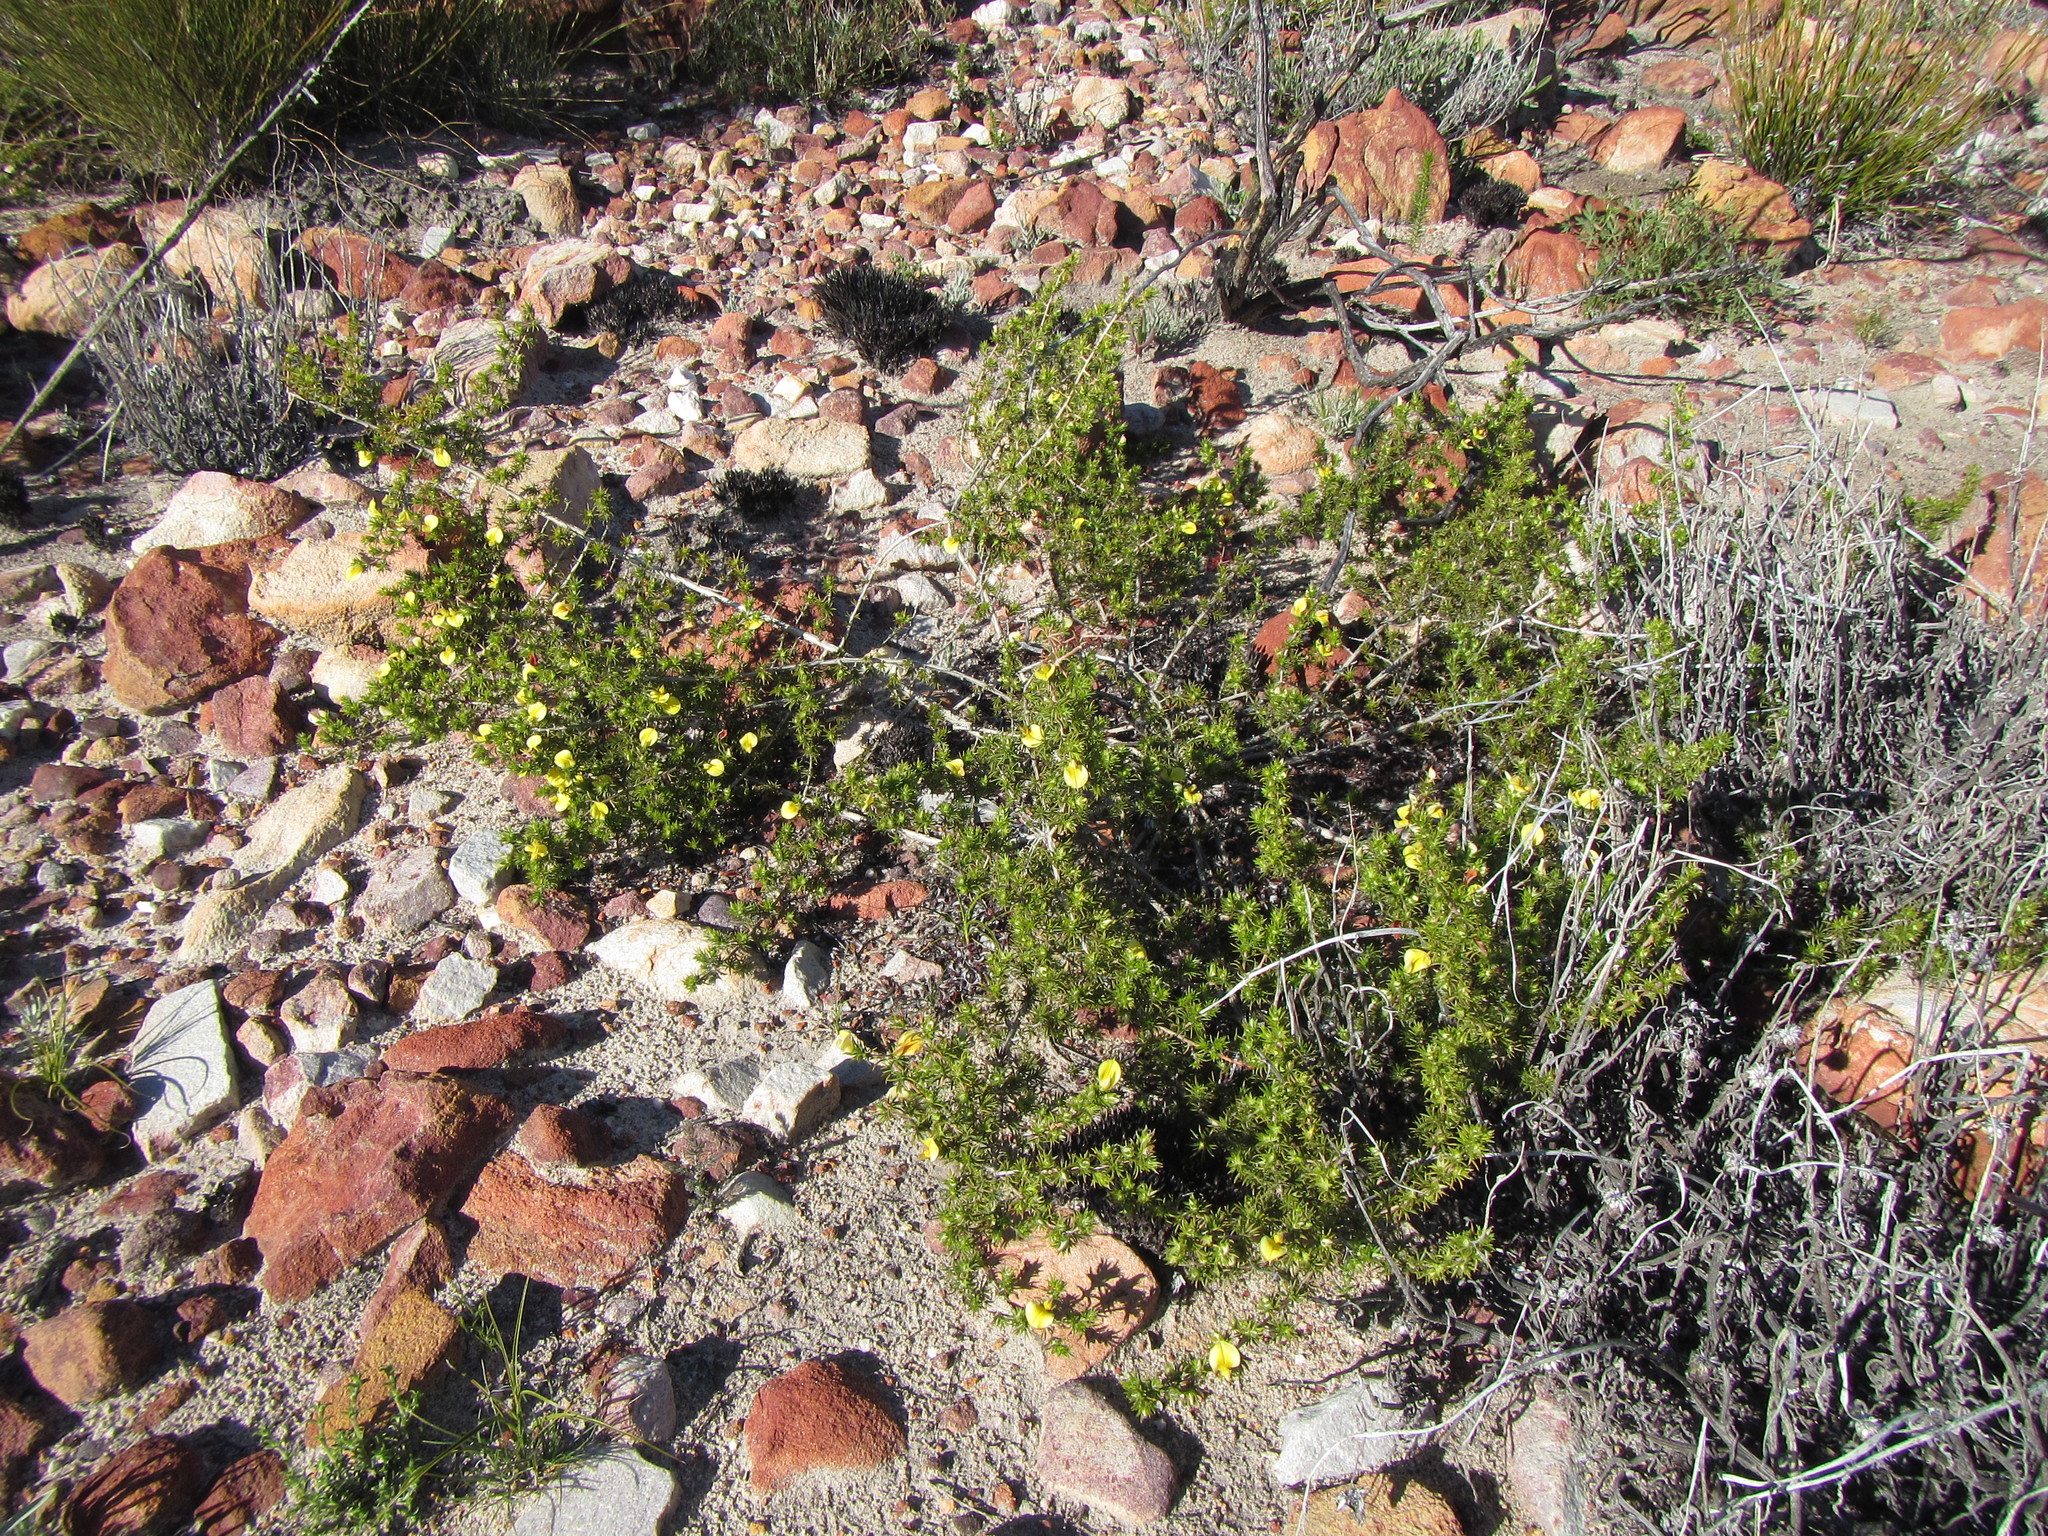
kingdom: Plantae
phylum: Tracheophyta
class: Magnoliopsida
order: Fabales
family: Fabaceae
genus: Aspalathus
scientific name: Aspalathus cliffortioides
